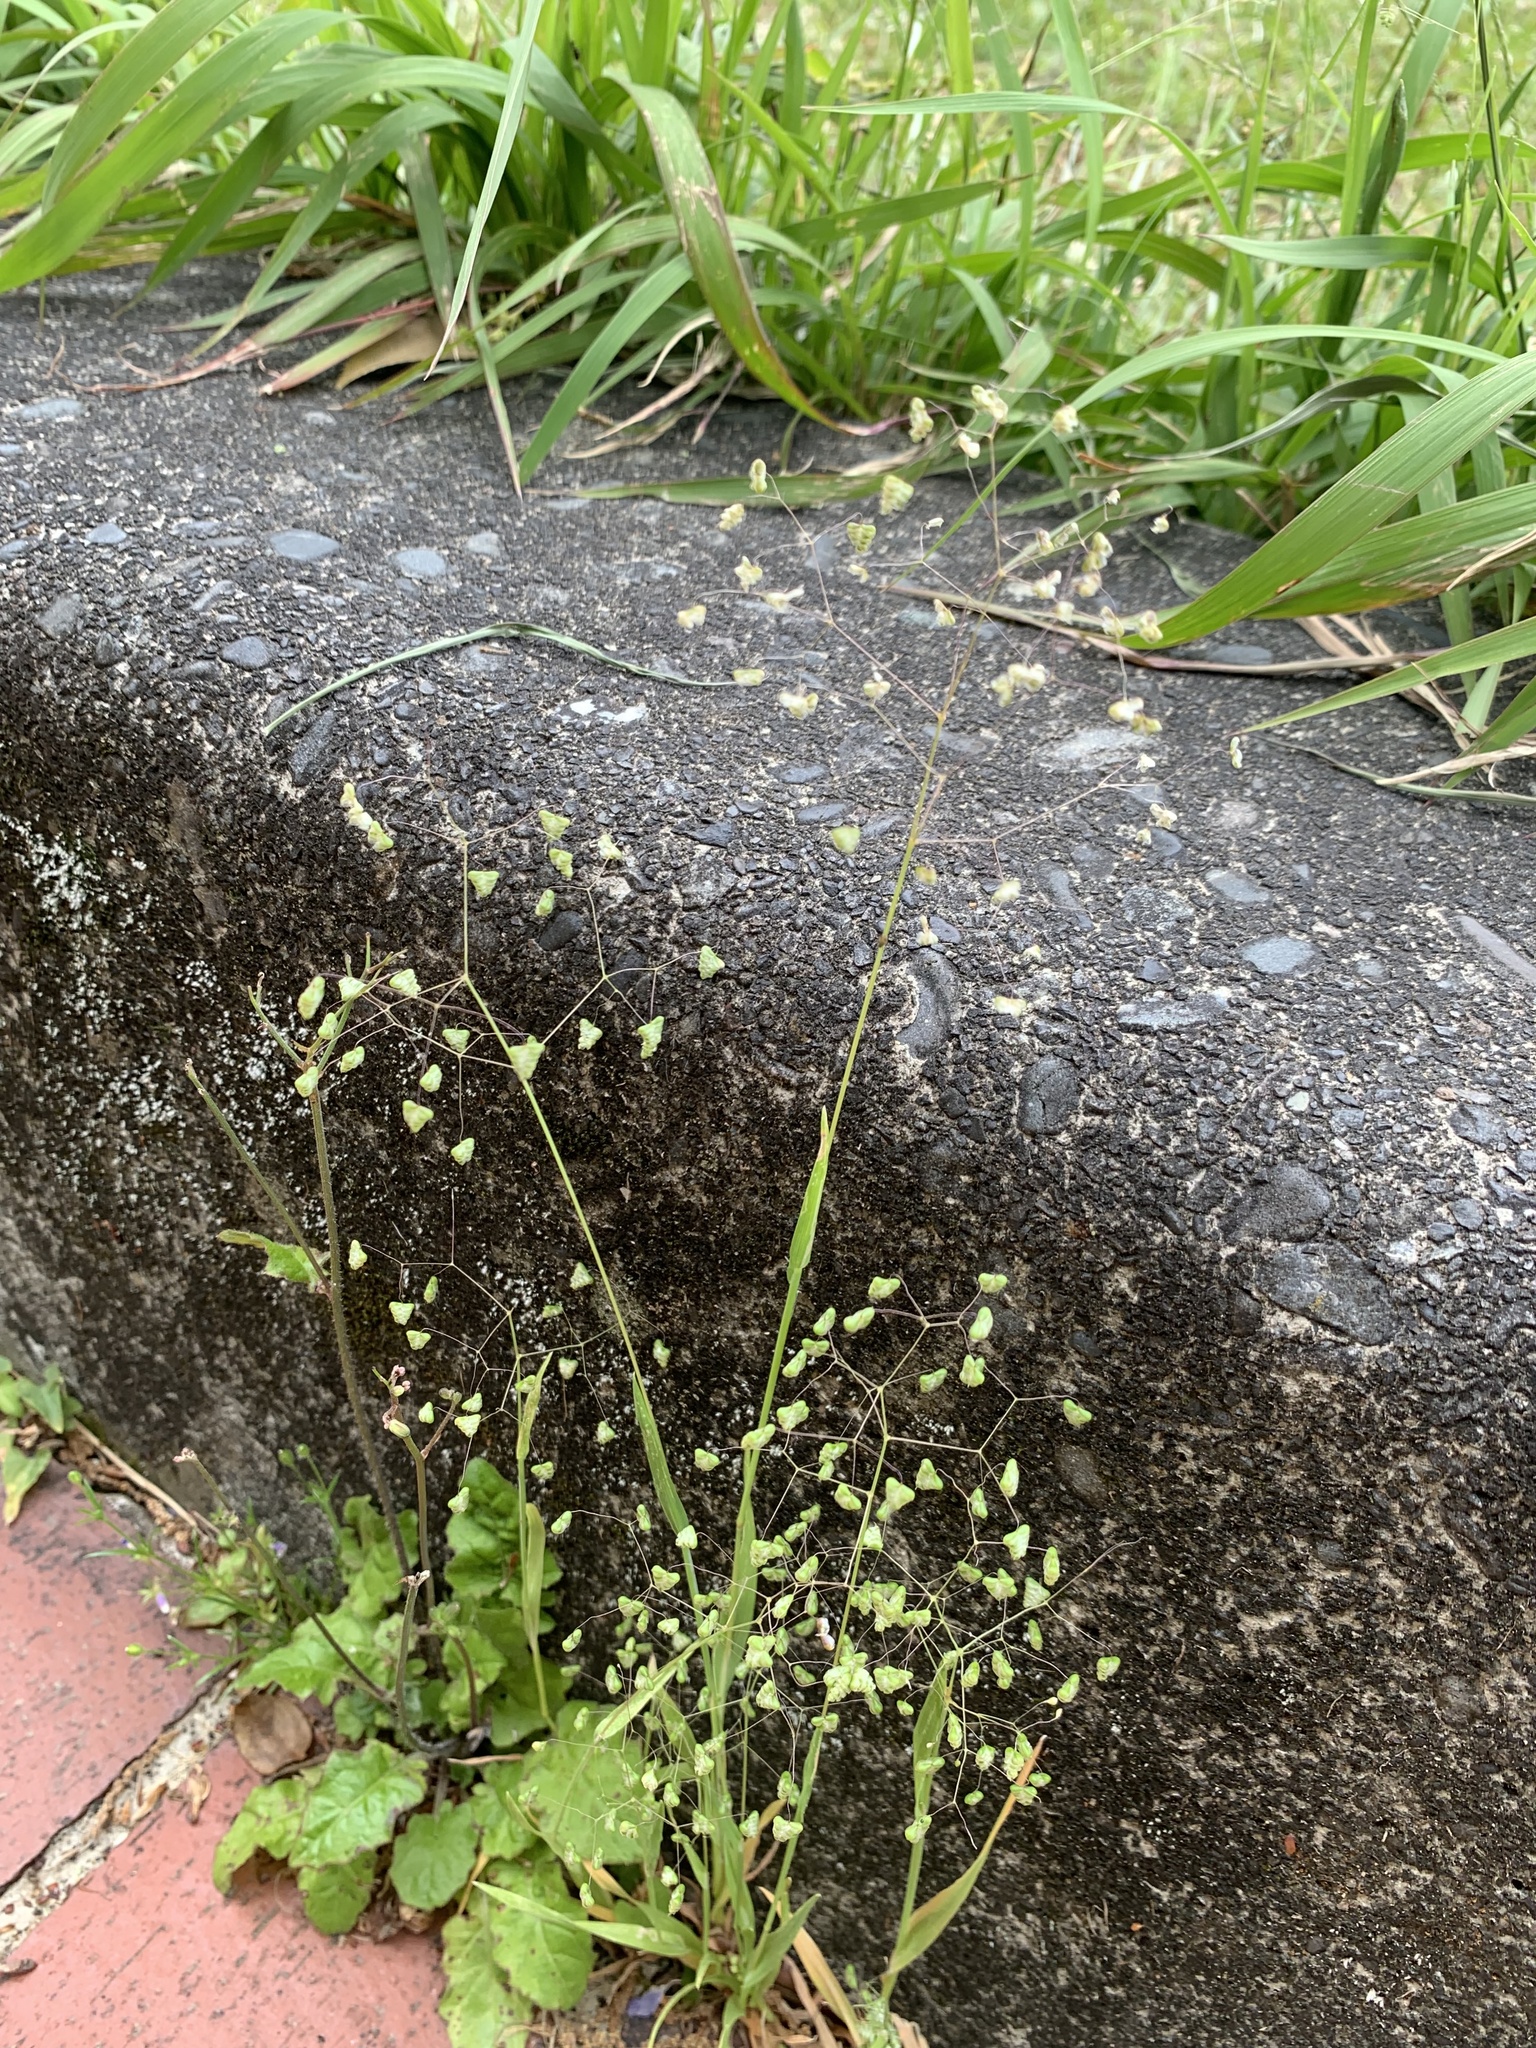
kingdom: Plantae
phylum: Tracheophyta
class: Liliopsida
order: Poales
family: Poaceae
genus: Briza
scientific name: Briza minor
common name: Lesser quaking-grass
